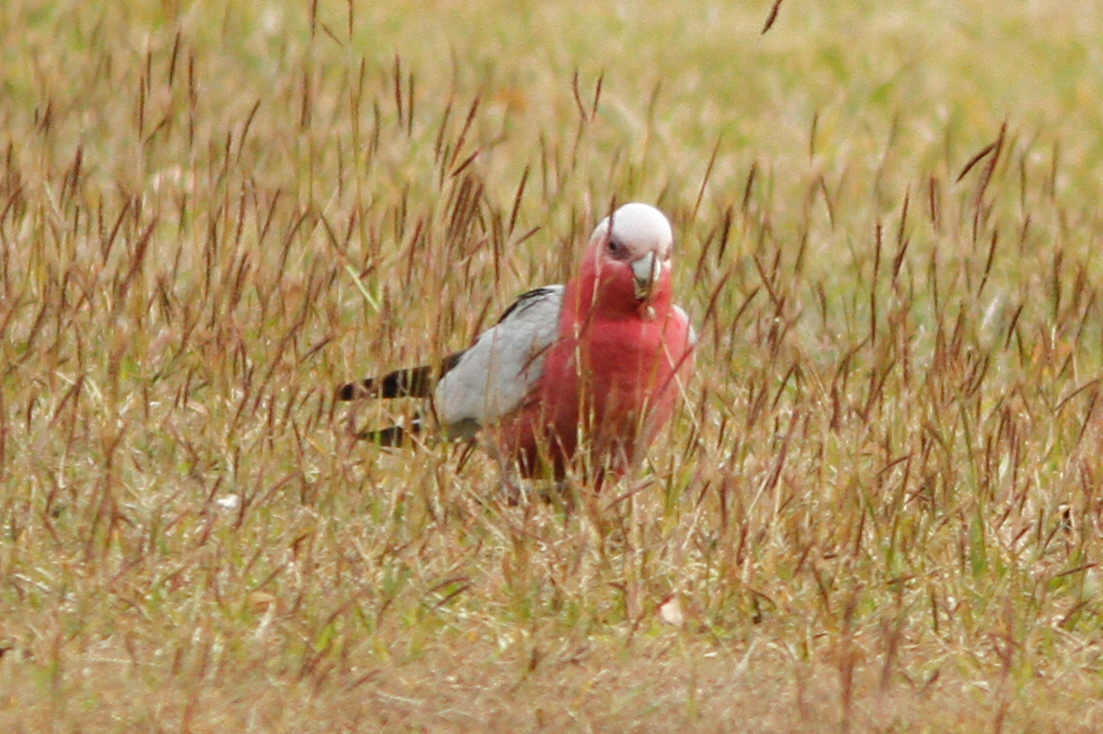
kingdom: Animalia
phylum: Chordata
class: Aves
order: Psittaciformes
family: Psittacidae
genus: Eolophus
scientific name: Eolophus roseicapilla
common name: Galah
